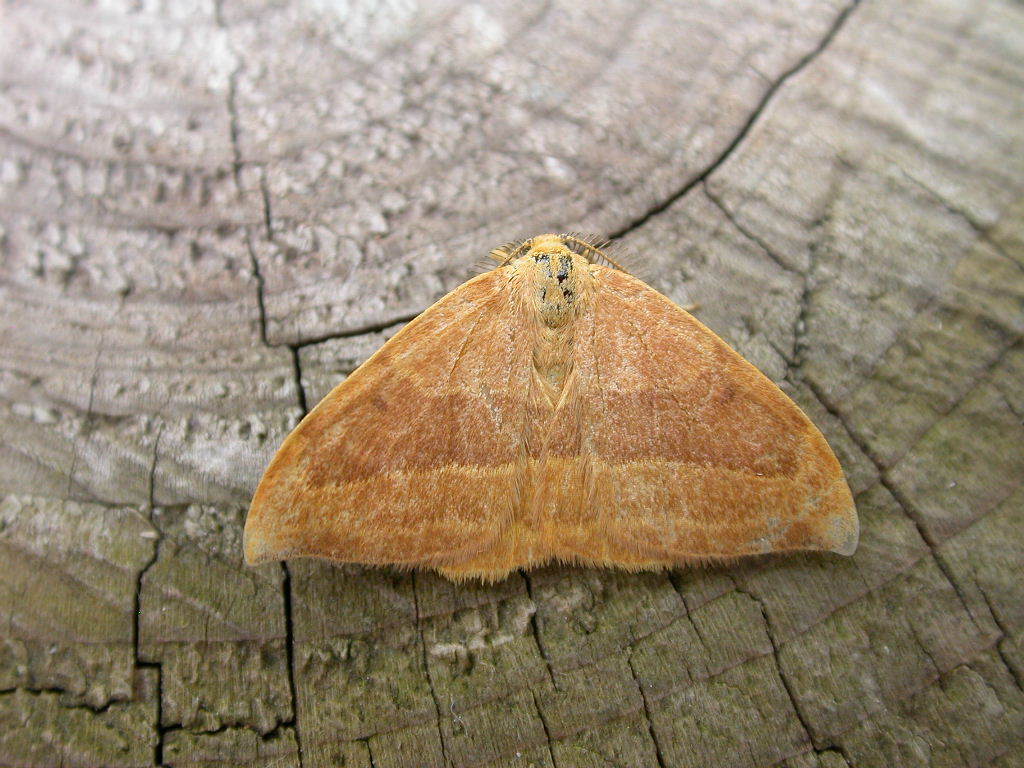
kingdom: Animalia
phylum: Arthropoda
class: Insecta
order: Lepidoptera
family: Drepanidae
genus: Watsonalla
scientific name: Watsonalla cultraria
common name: Barred hook-tip
